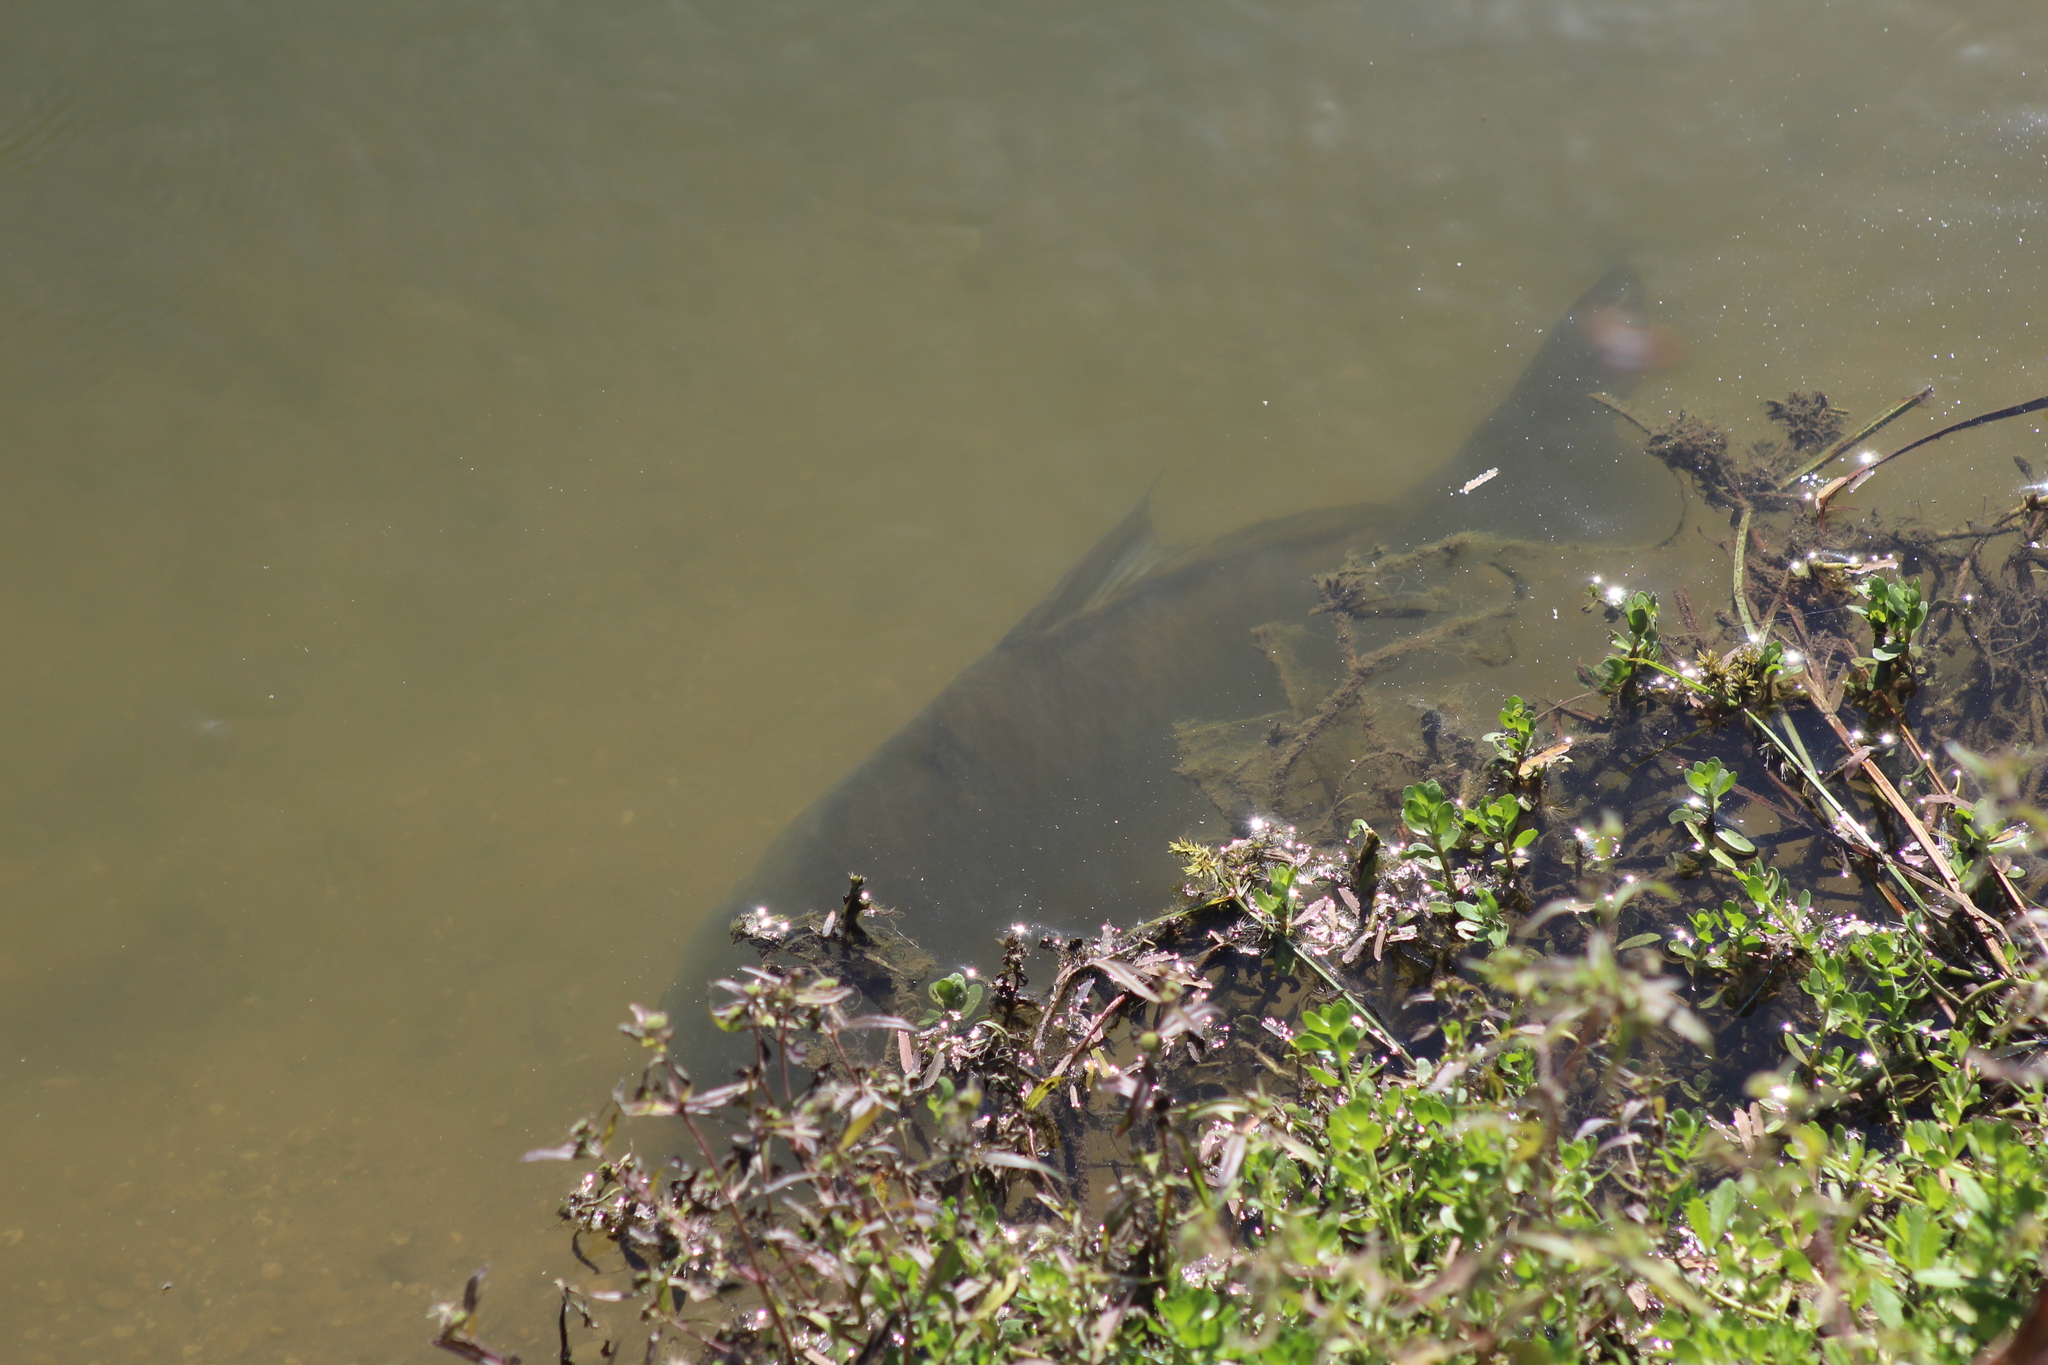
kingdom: Animalia
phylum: Chordata
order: Cypriniformes
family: Catostomidae
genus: Ictiobus
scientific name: Ictiobus bubalus
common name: Smallmouth buffalo
